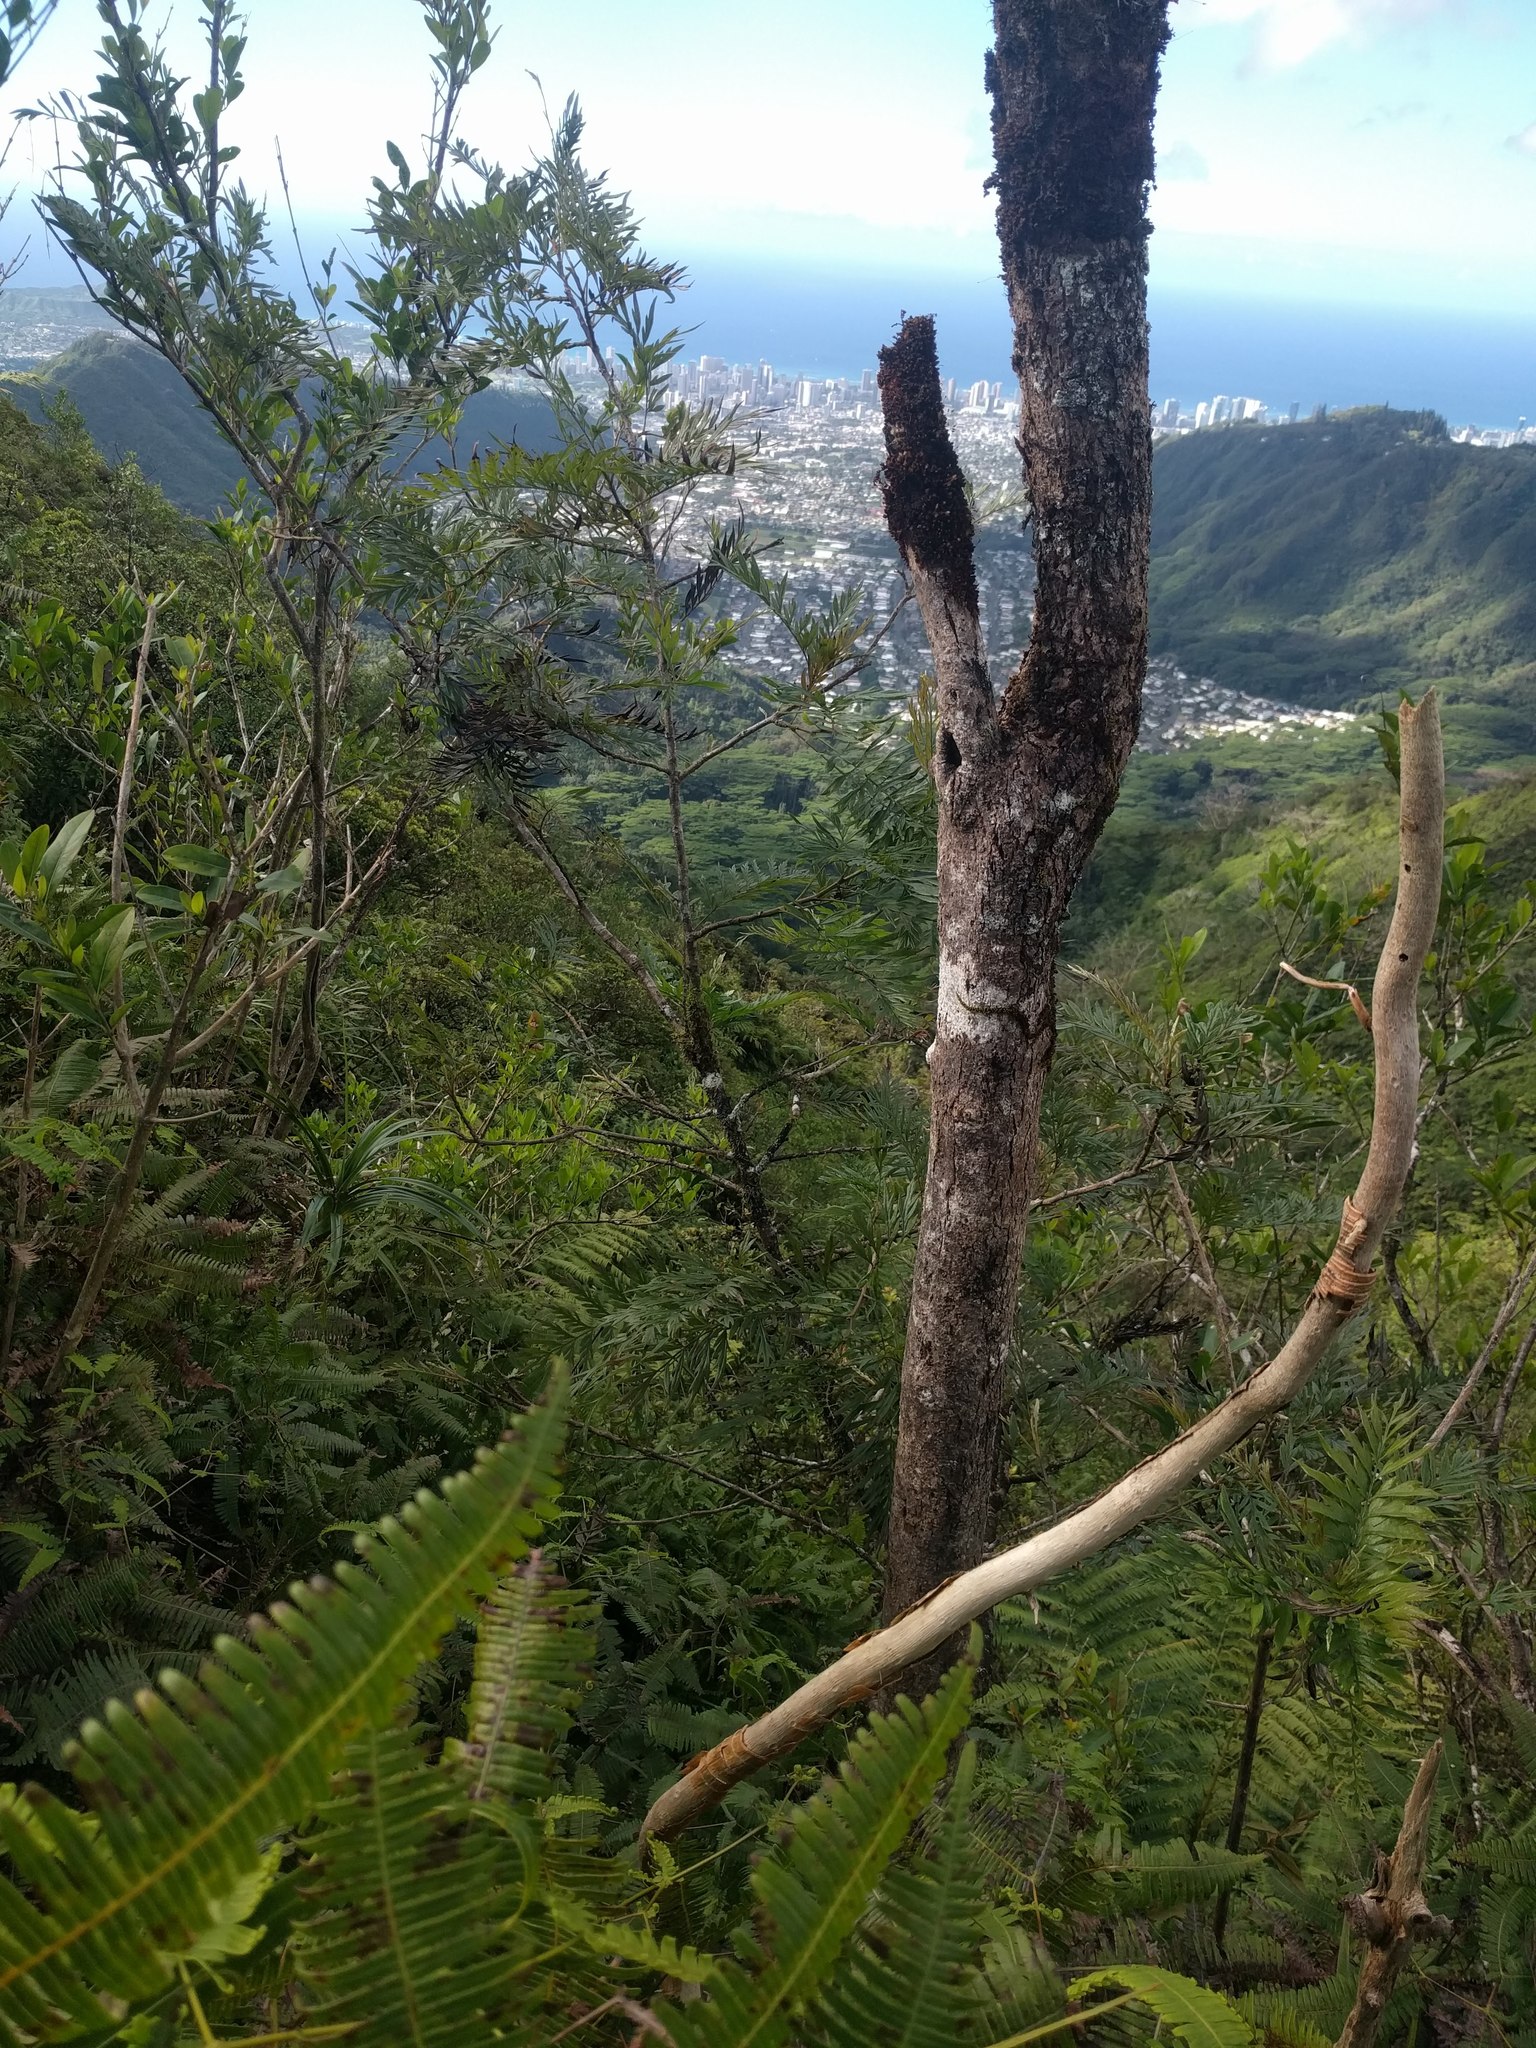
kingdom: Plantae
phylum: Tracheophyta
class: Magnoliopsida
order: Proteales
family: Proteaceae
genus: Grevillea
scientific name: Grevillea robusta
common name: Silkoak
